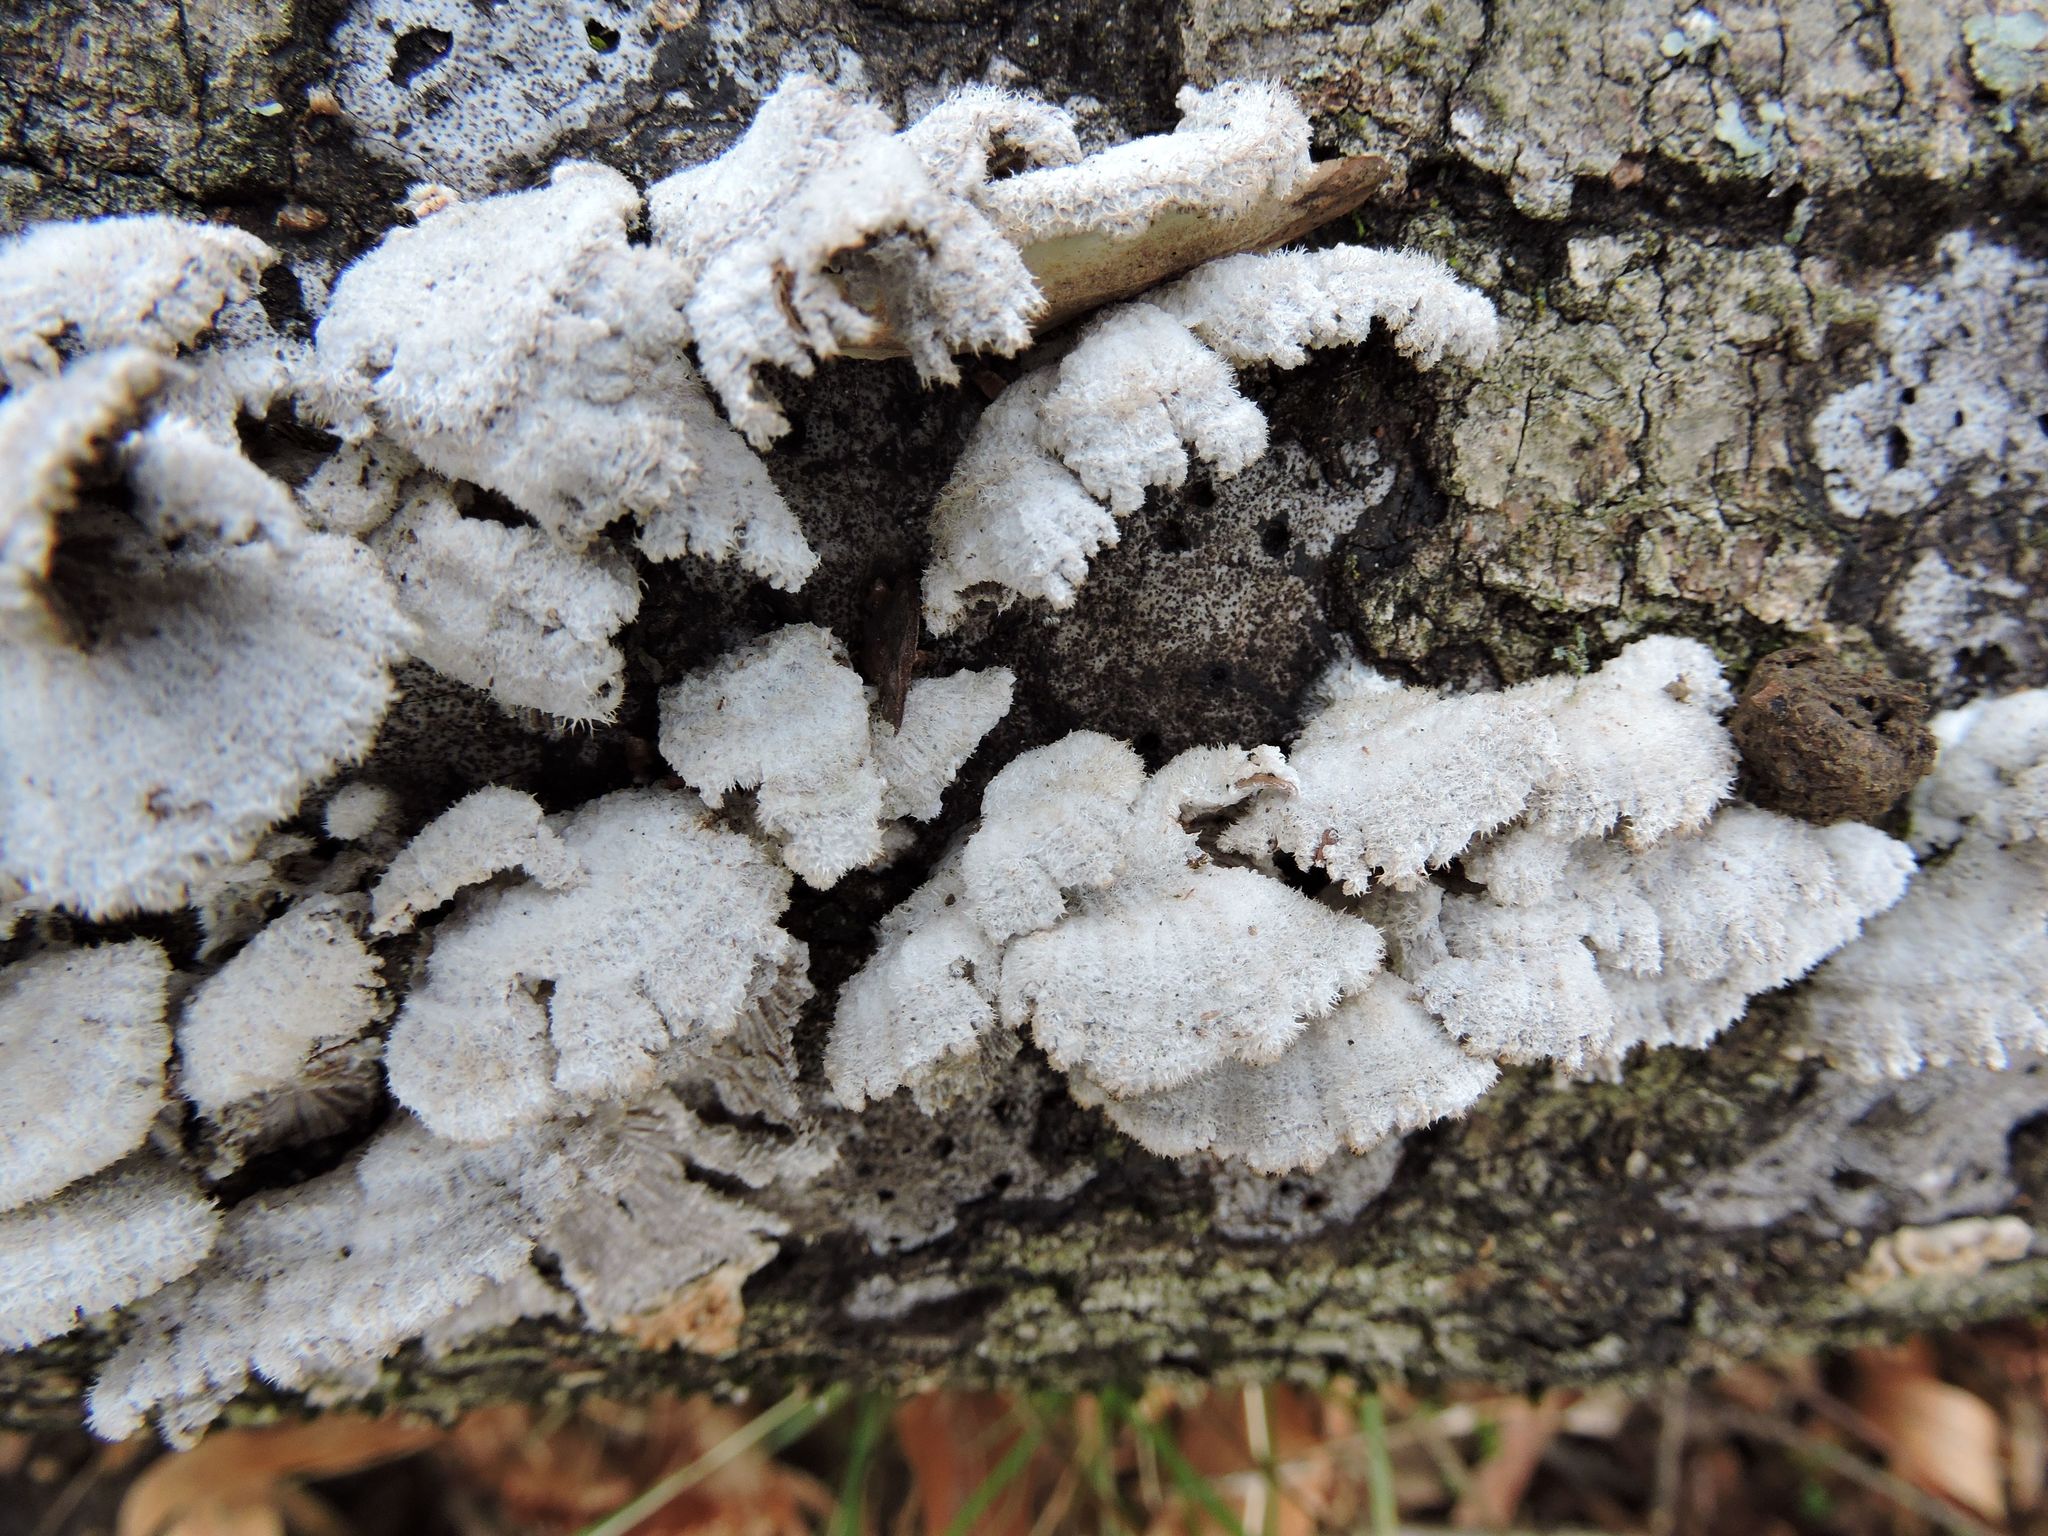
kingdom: Fungi
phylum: Basidiomycota
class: Agaricomycetes
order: Agaricales
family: Schizophyllaceae
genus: Schizophyllum
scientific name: Schizophyllum commune
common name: Common porecrust
